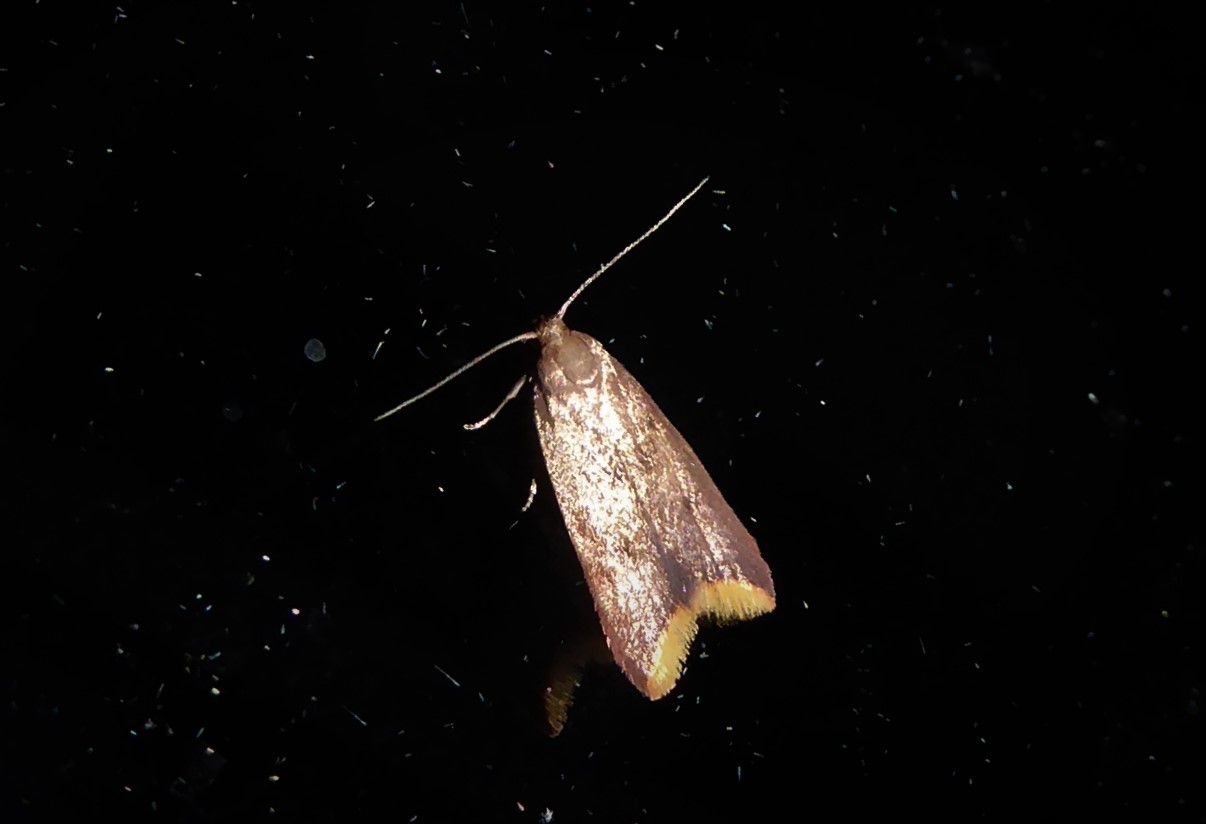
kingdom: Animalia
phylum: Arthropoda
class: Insecta
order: Lepidoptera
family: Oecophoridae
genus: Tachystola
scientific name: Tachystola acroxantha
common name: Ruddy streak
